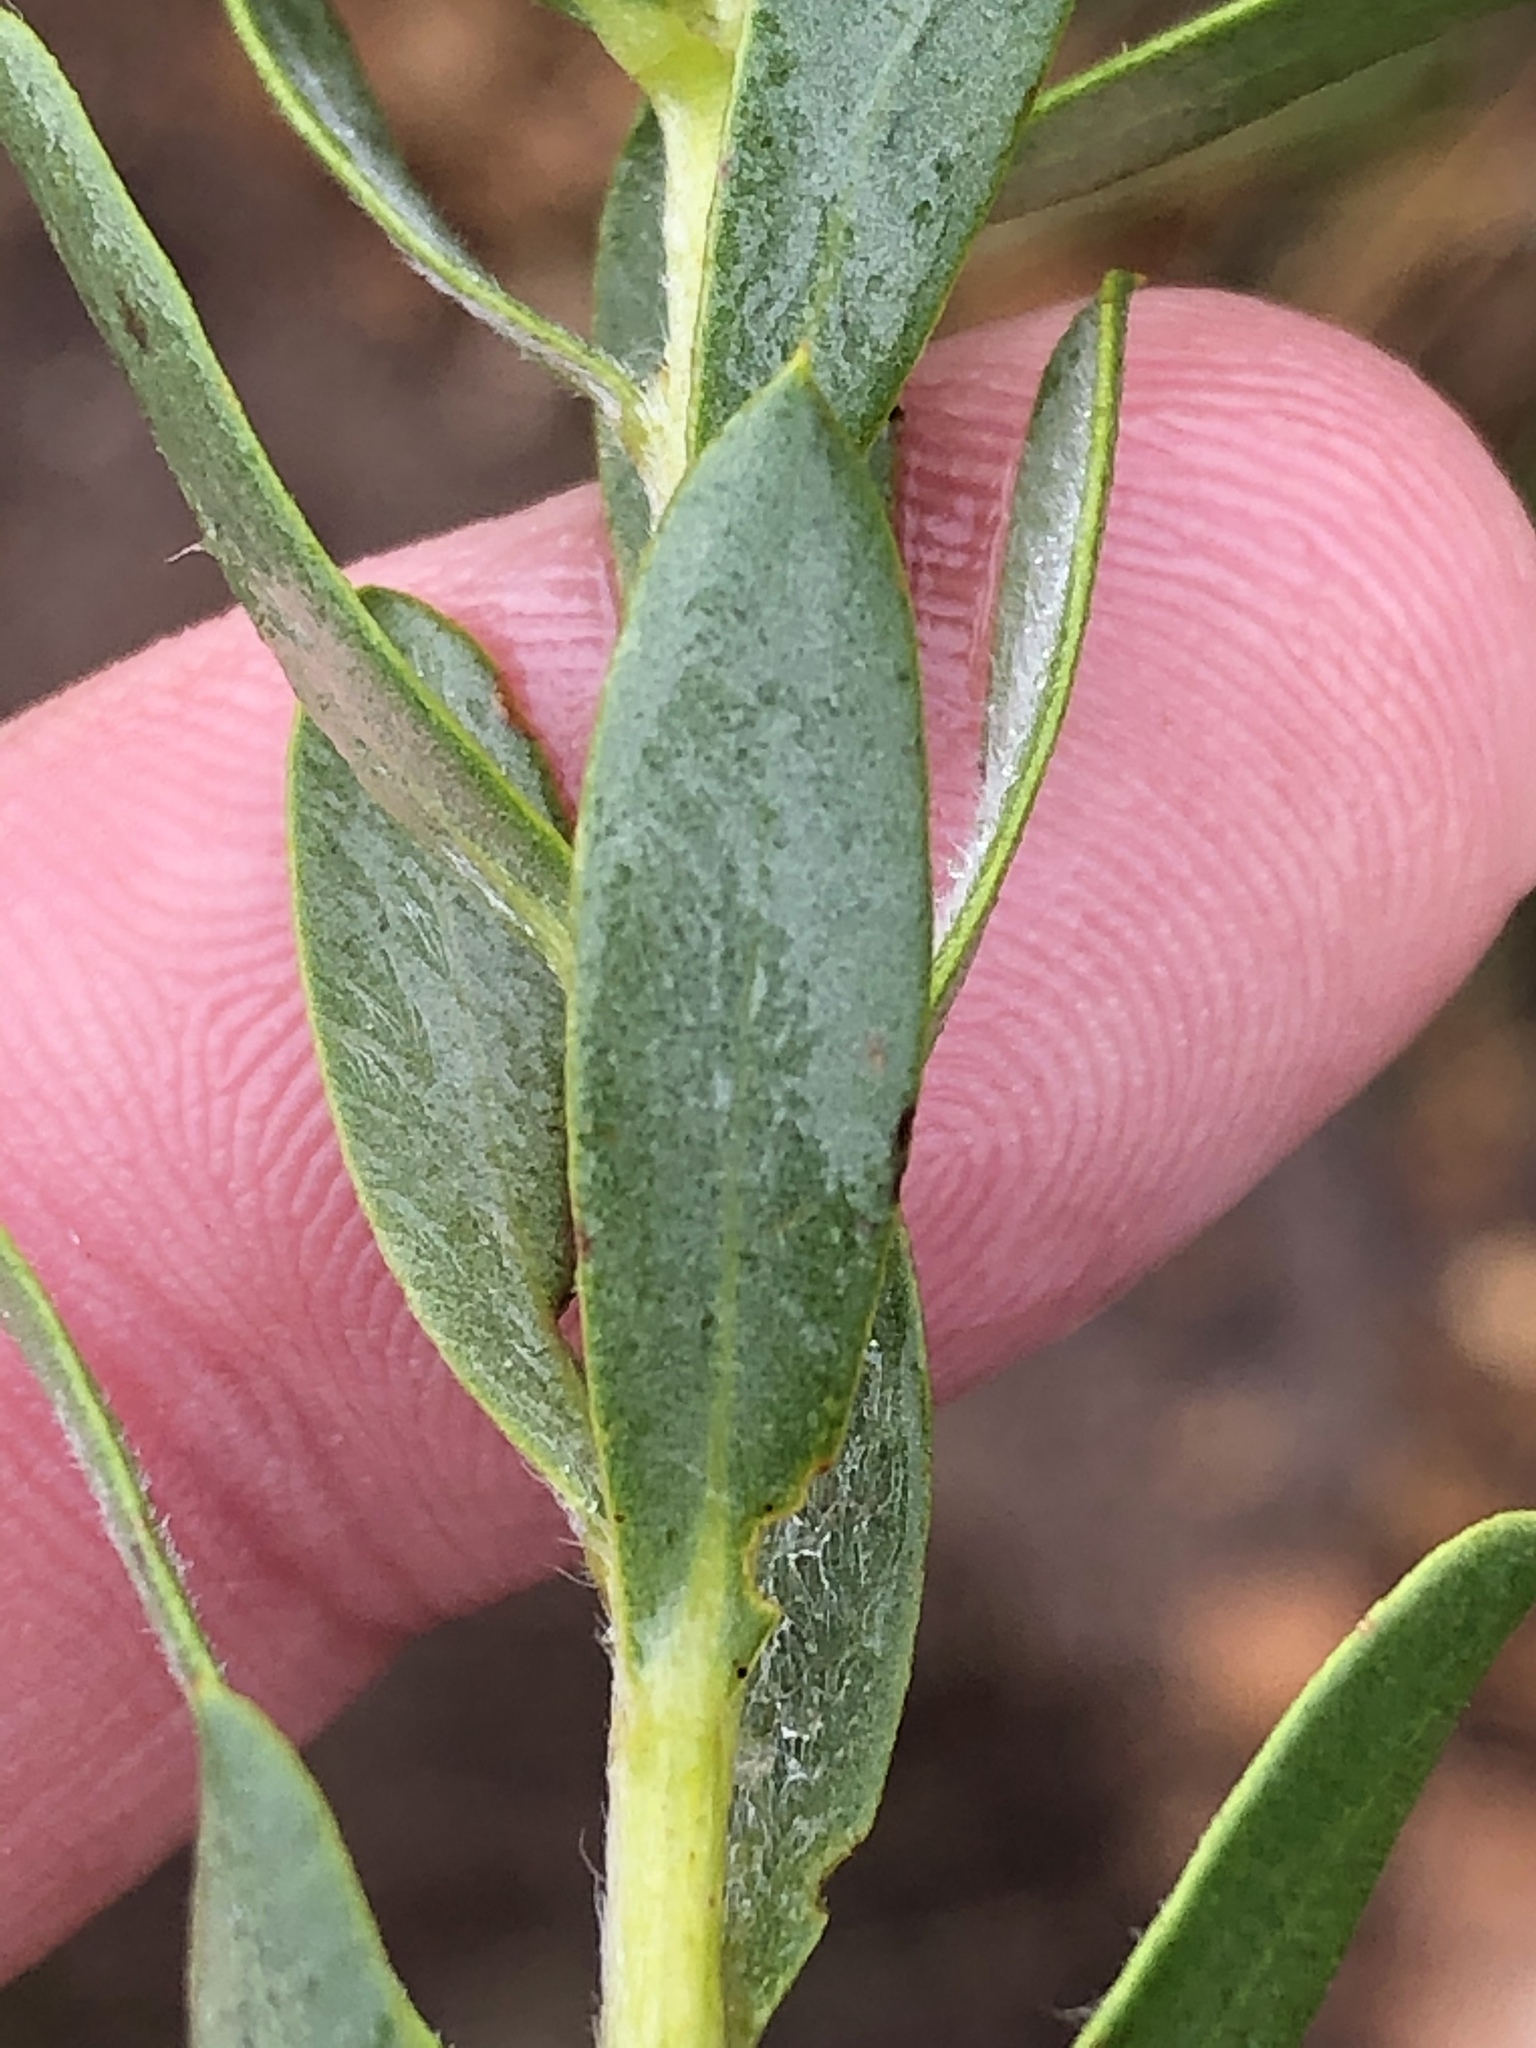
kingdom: Plantae
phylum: Tracheophyta
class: Magnoliopsida
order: Fabales
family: Fabaceae
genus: Liparia
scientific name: Liparia racemosa
